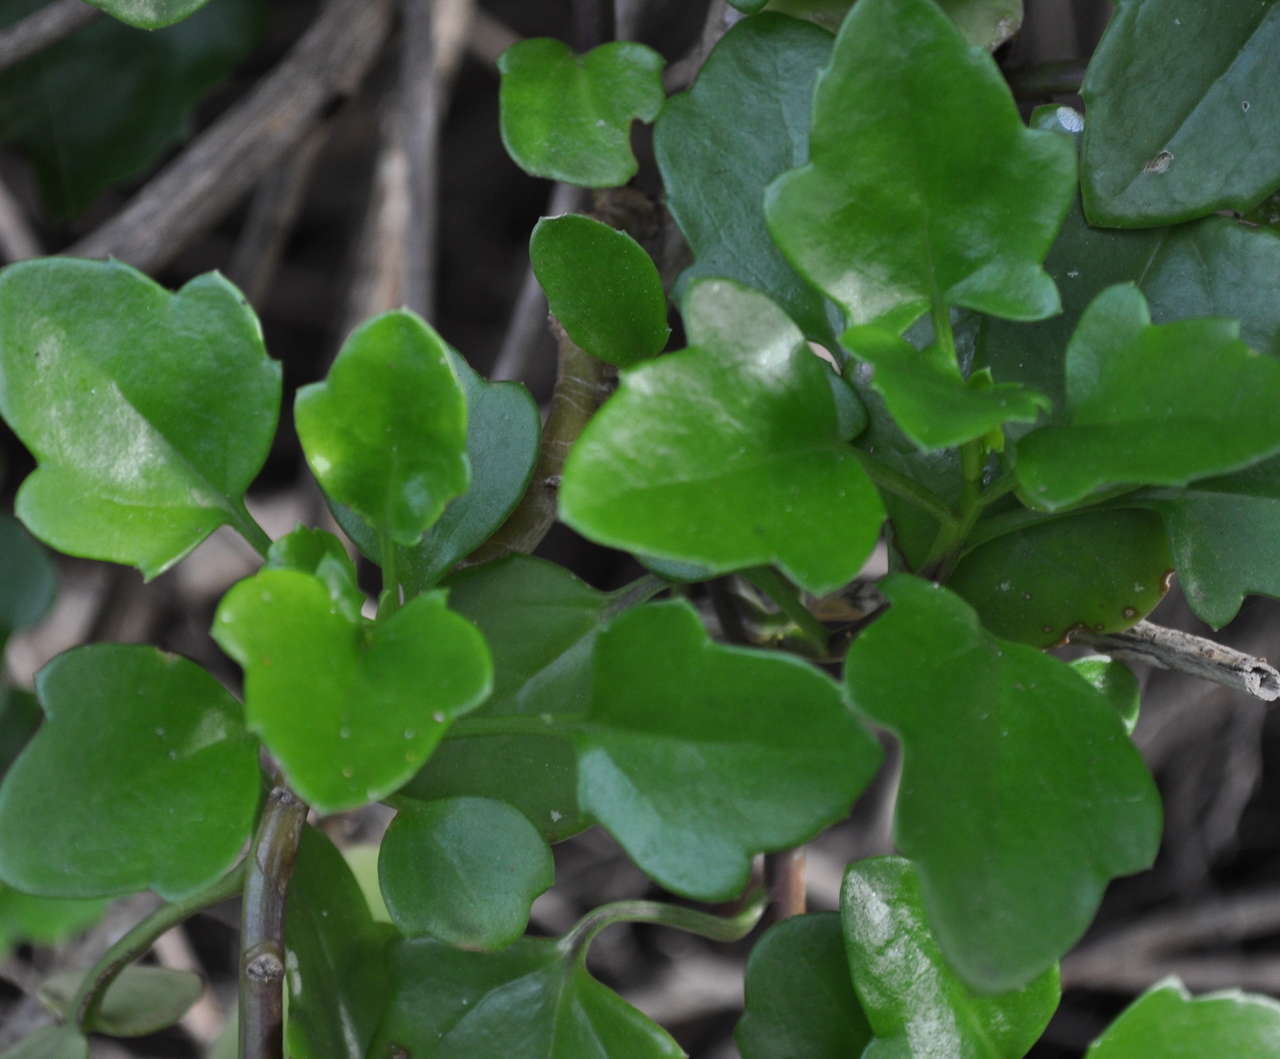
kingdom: Plantae
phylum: Tracheophyta
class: Magnoliopsida
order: Asterales
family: Asteraceae
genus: Senecio
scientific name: Senecio angulatus
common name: Climbing groundsel
